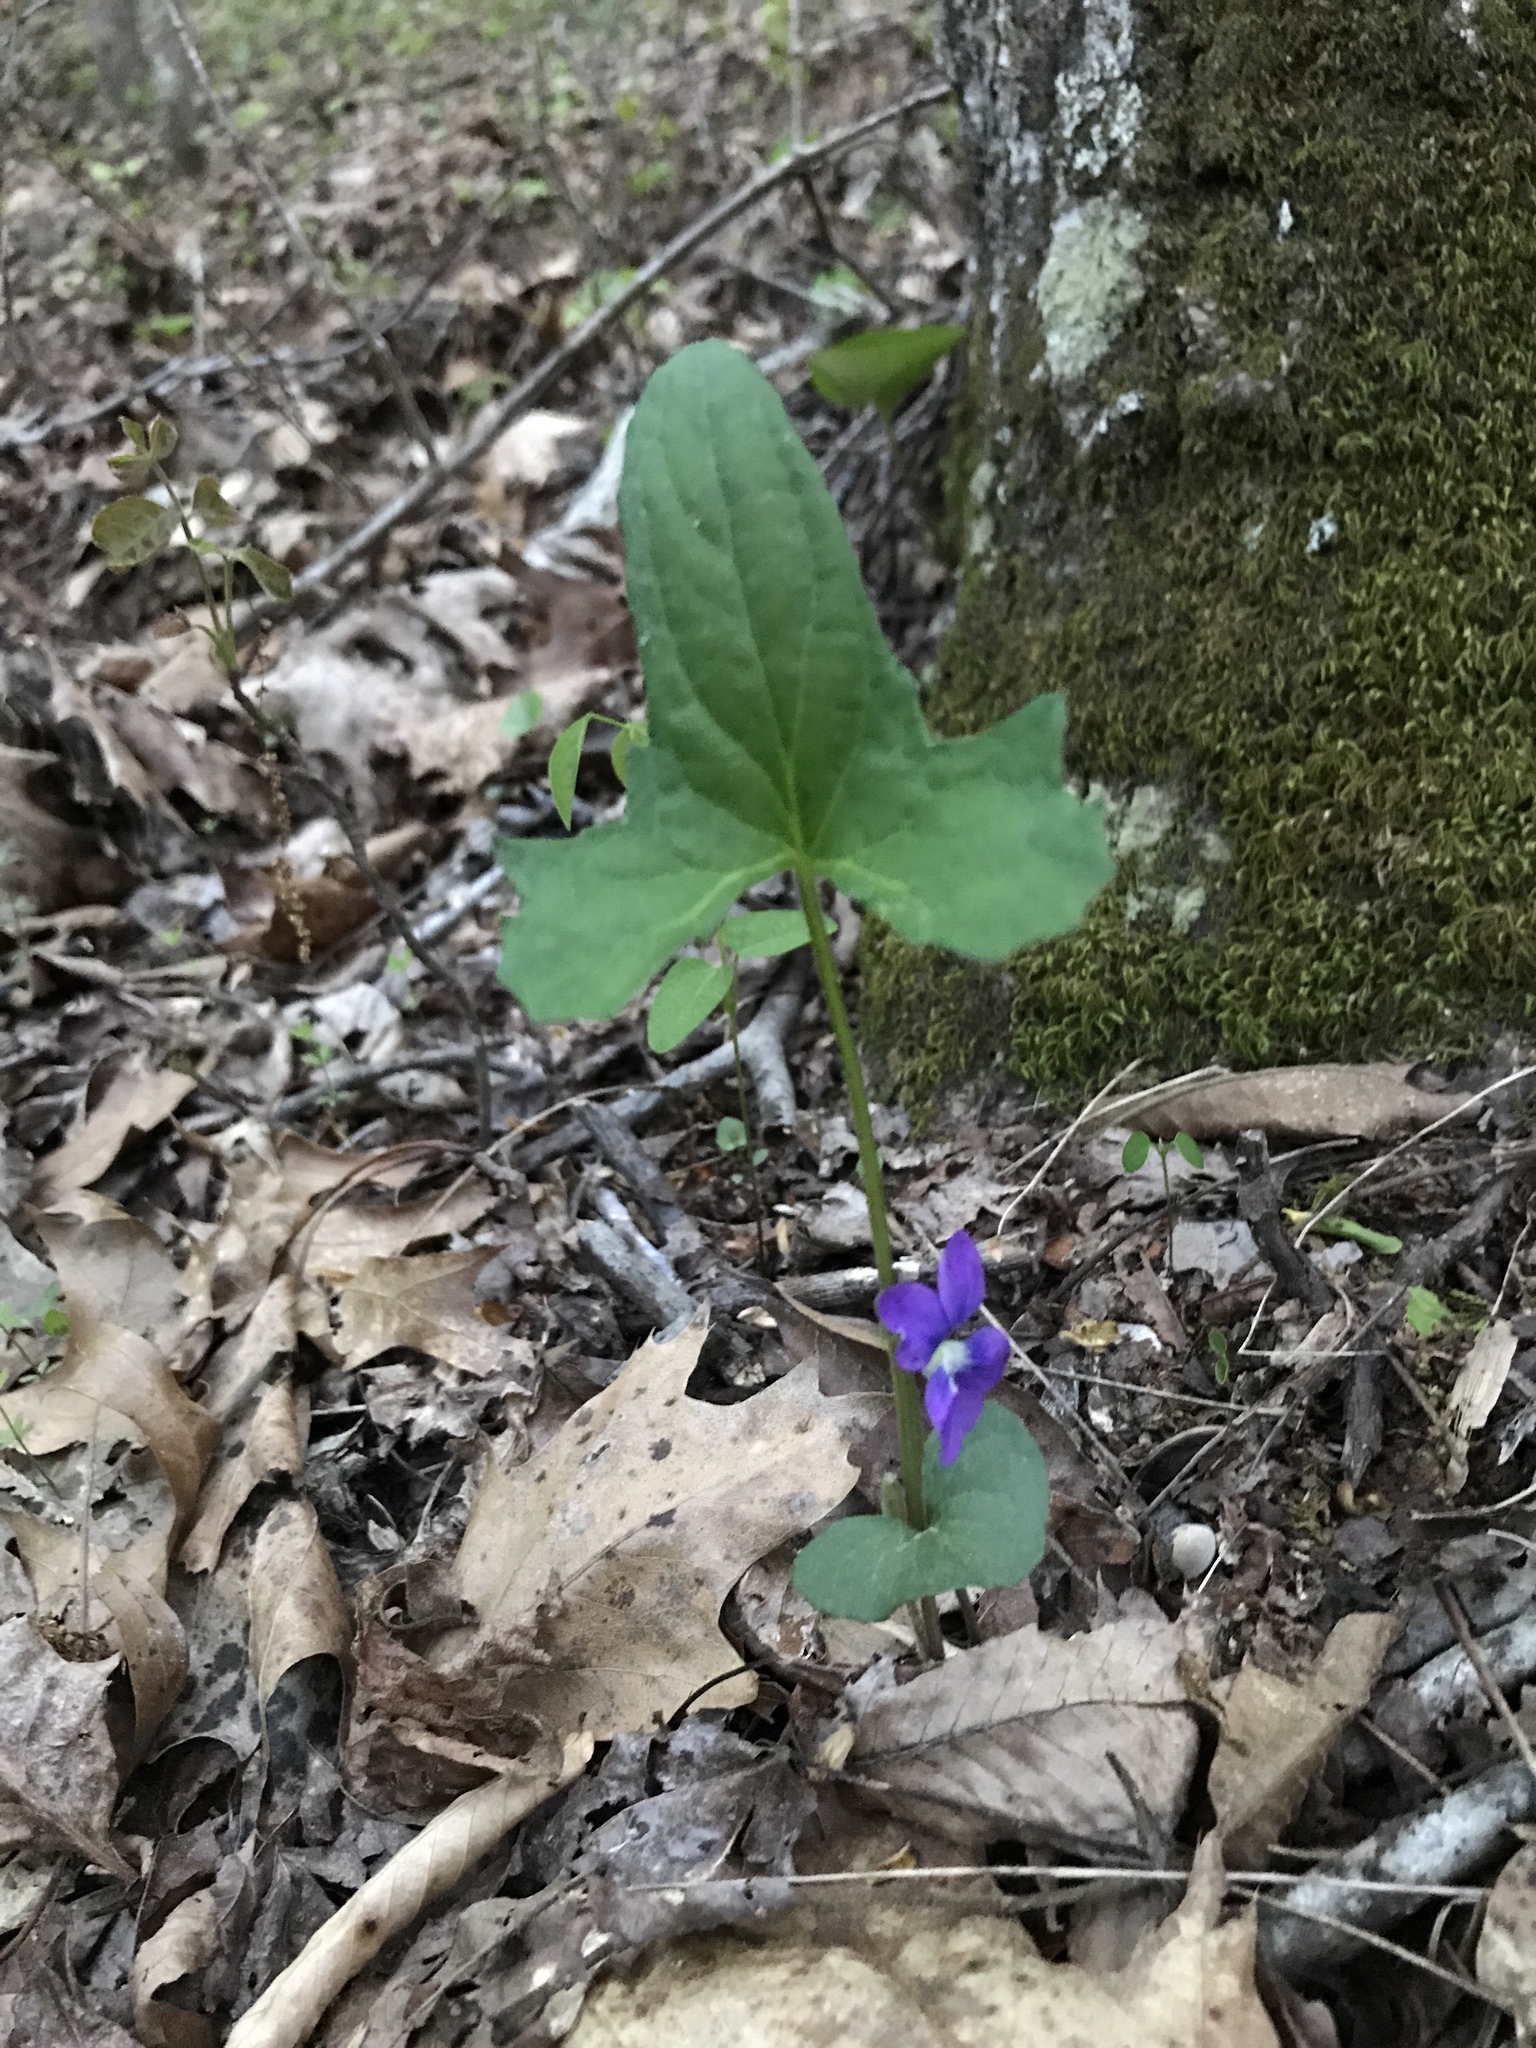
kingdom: Plantae
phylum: Tracheophyta
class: Magnoliopsida
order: Malpighiales
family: Violaceae
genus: Viola
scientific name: Viola palmata
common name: Early blue violet
